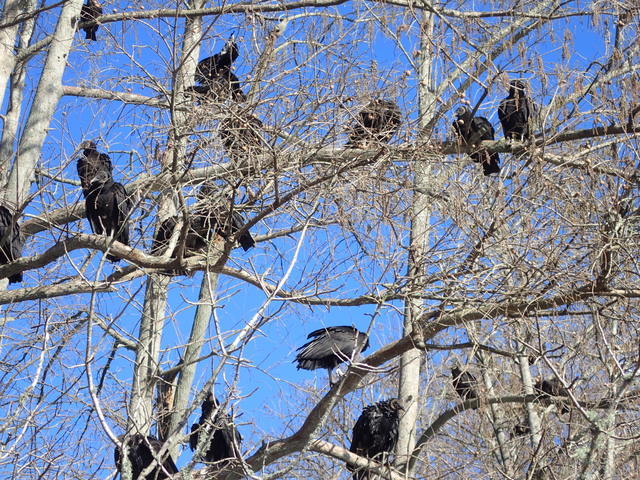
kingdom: Animalia
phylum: Chordata
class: Aves
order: Accipitriformes
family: Cathartidae
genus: Coragyps
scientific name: Coragyps atratus
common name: Black vulture
